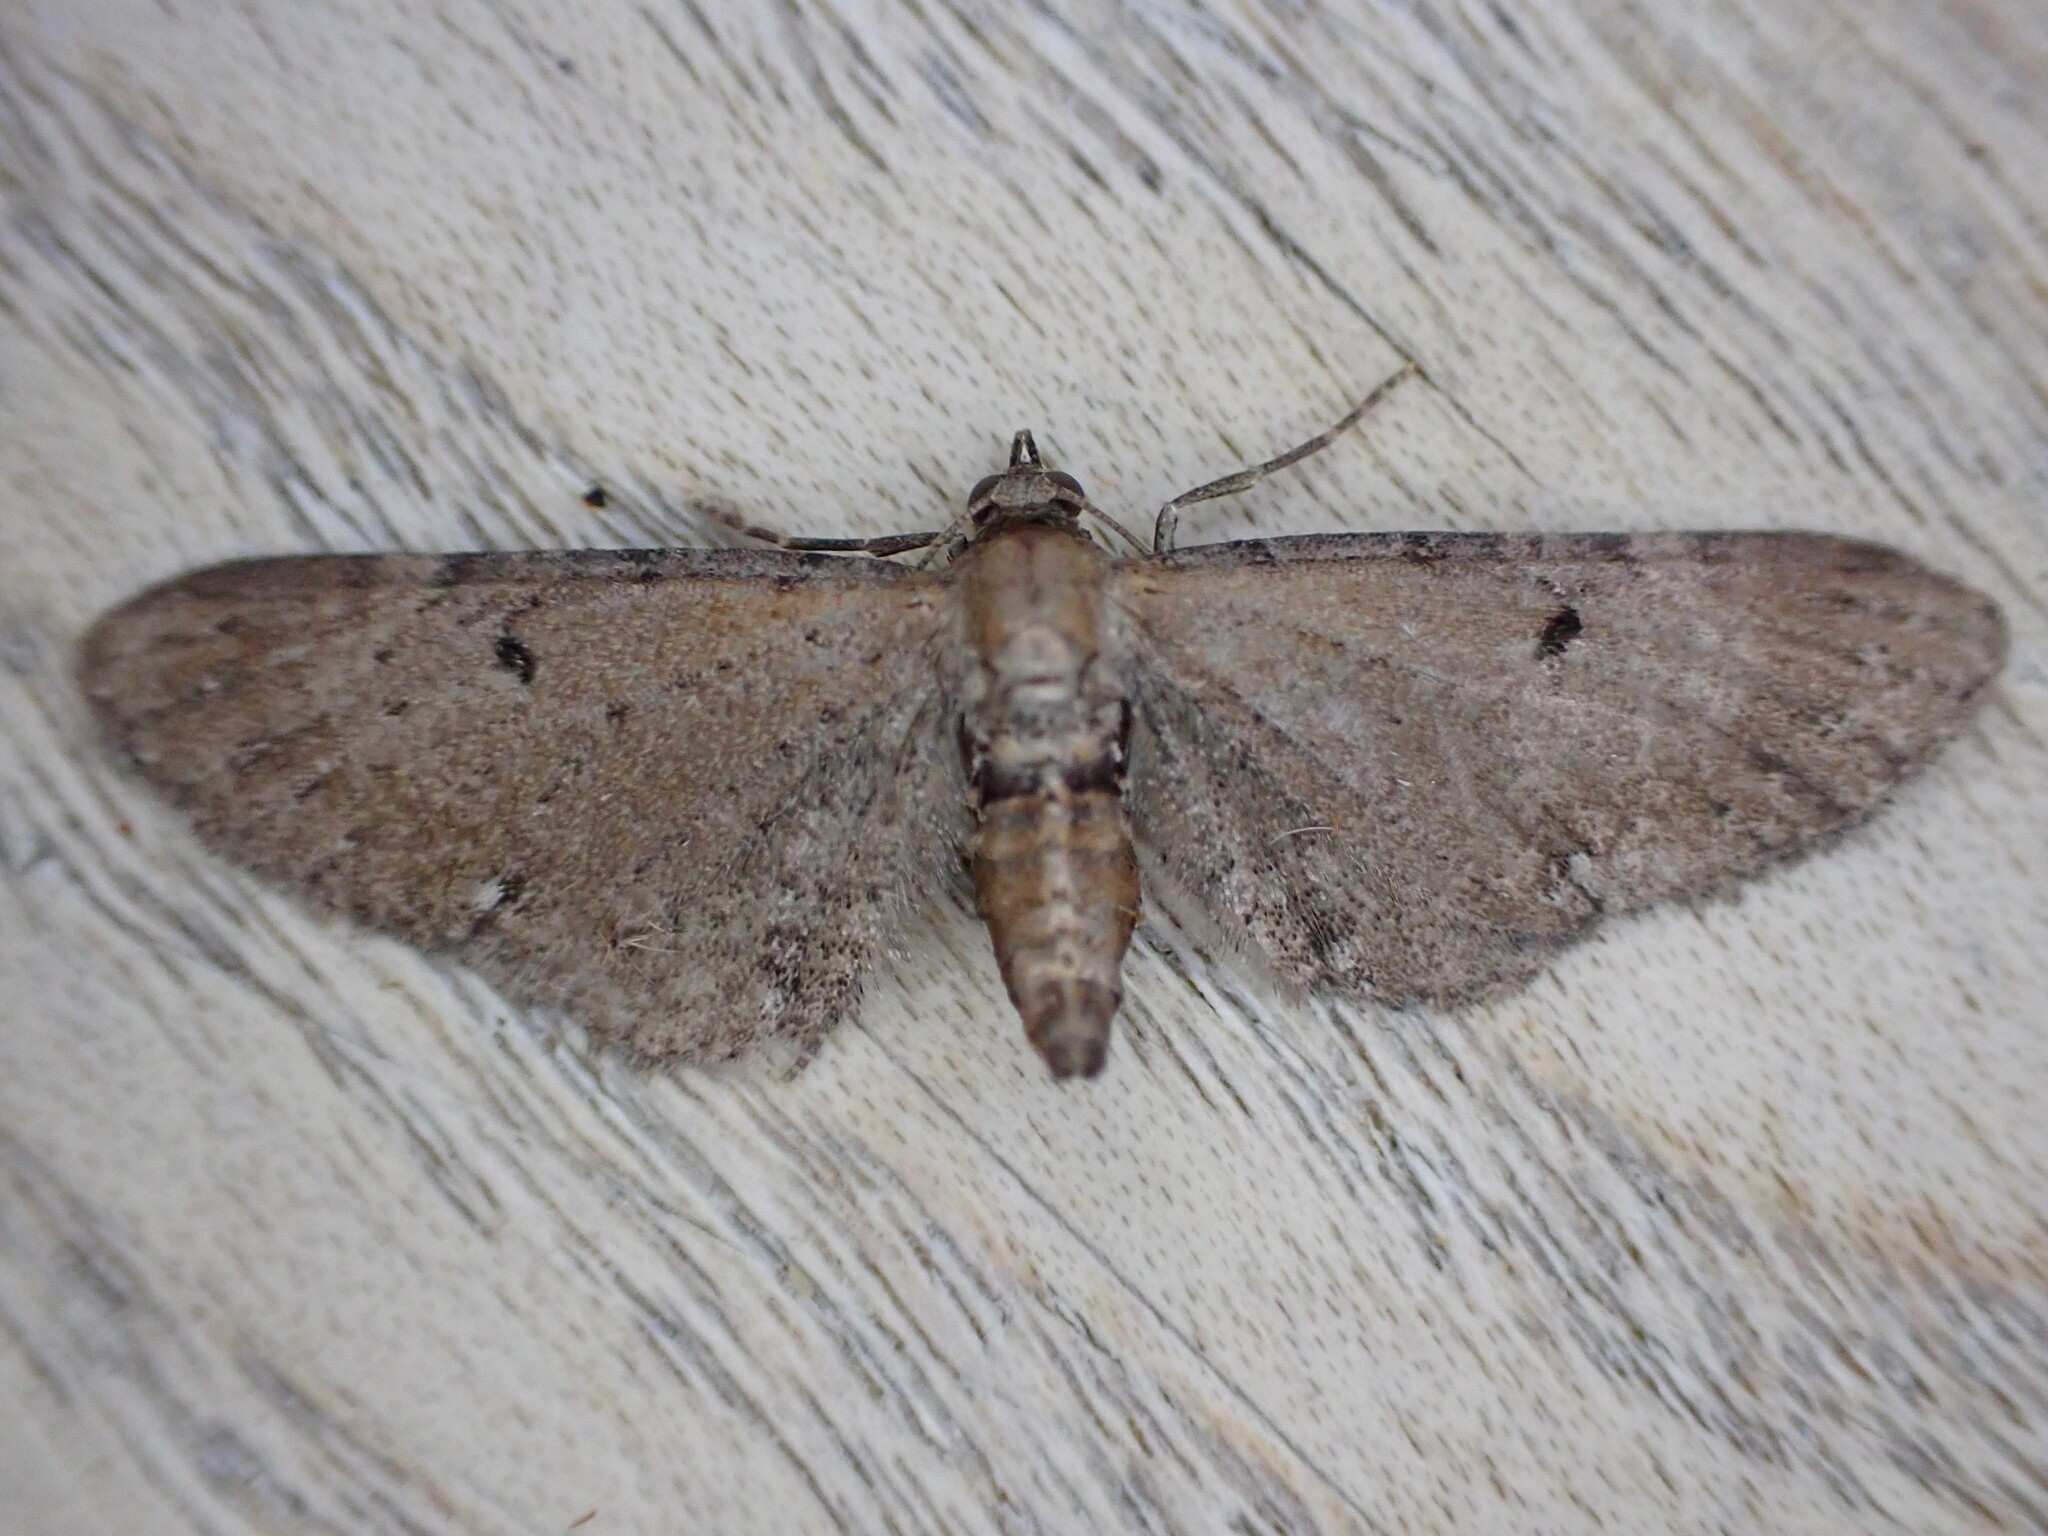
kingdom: Animalia
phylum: Arthropoda
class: Insecta
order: Lepidoptera
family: Geometridae
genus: Eupithecia
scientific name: Eupithecia absinthiata
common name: Wormwood pug
